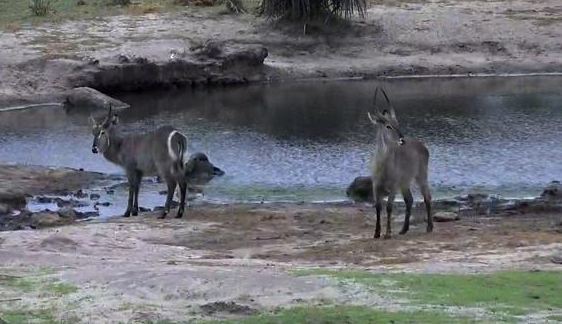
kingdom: Animalia
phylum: Chordata
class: Mammalia
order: Artiodactyla
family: Bovidae
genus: Kobus
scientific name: Kobus ellipsiprymnus
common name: Waterbuck
